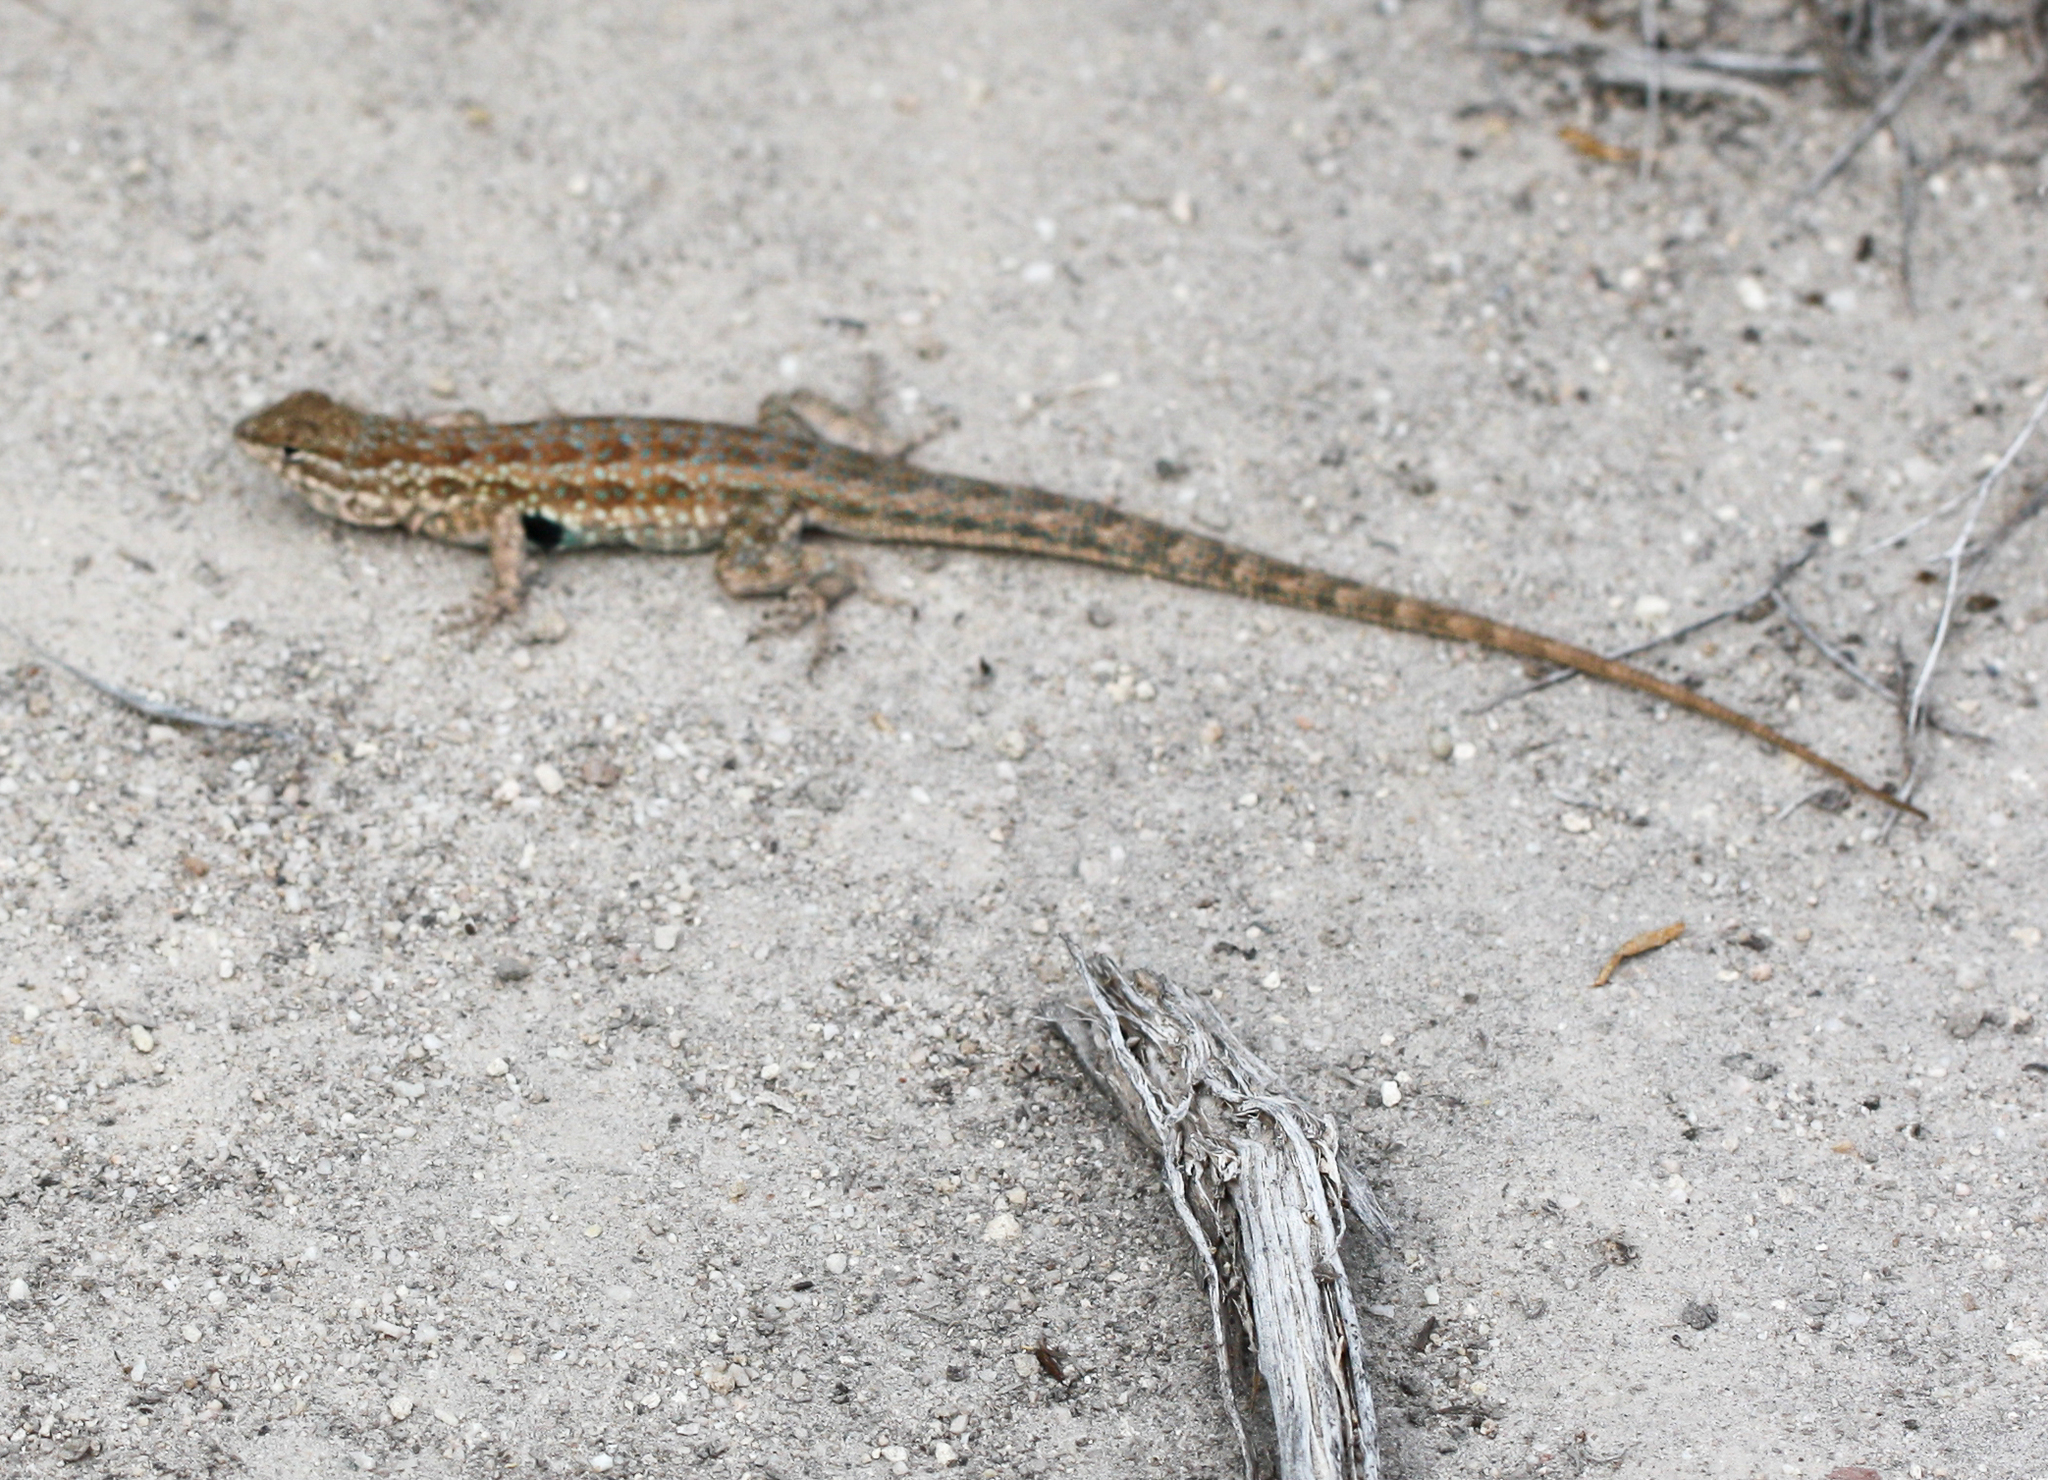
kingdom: Animalia
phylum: Chordata
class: Squamata
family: Phrynosomatidae
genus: Uta
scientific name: Uta stansburiana
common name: Side-blotched lizard
